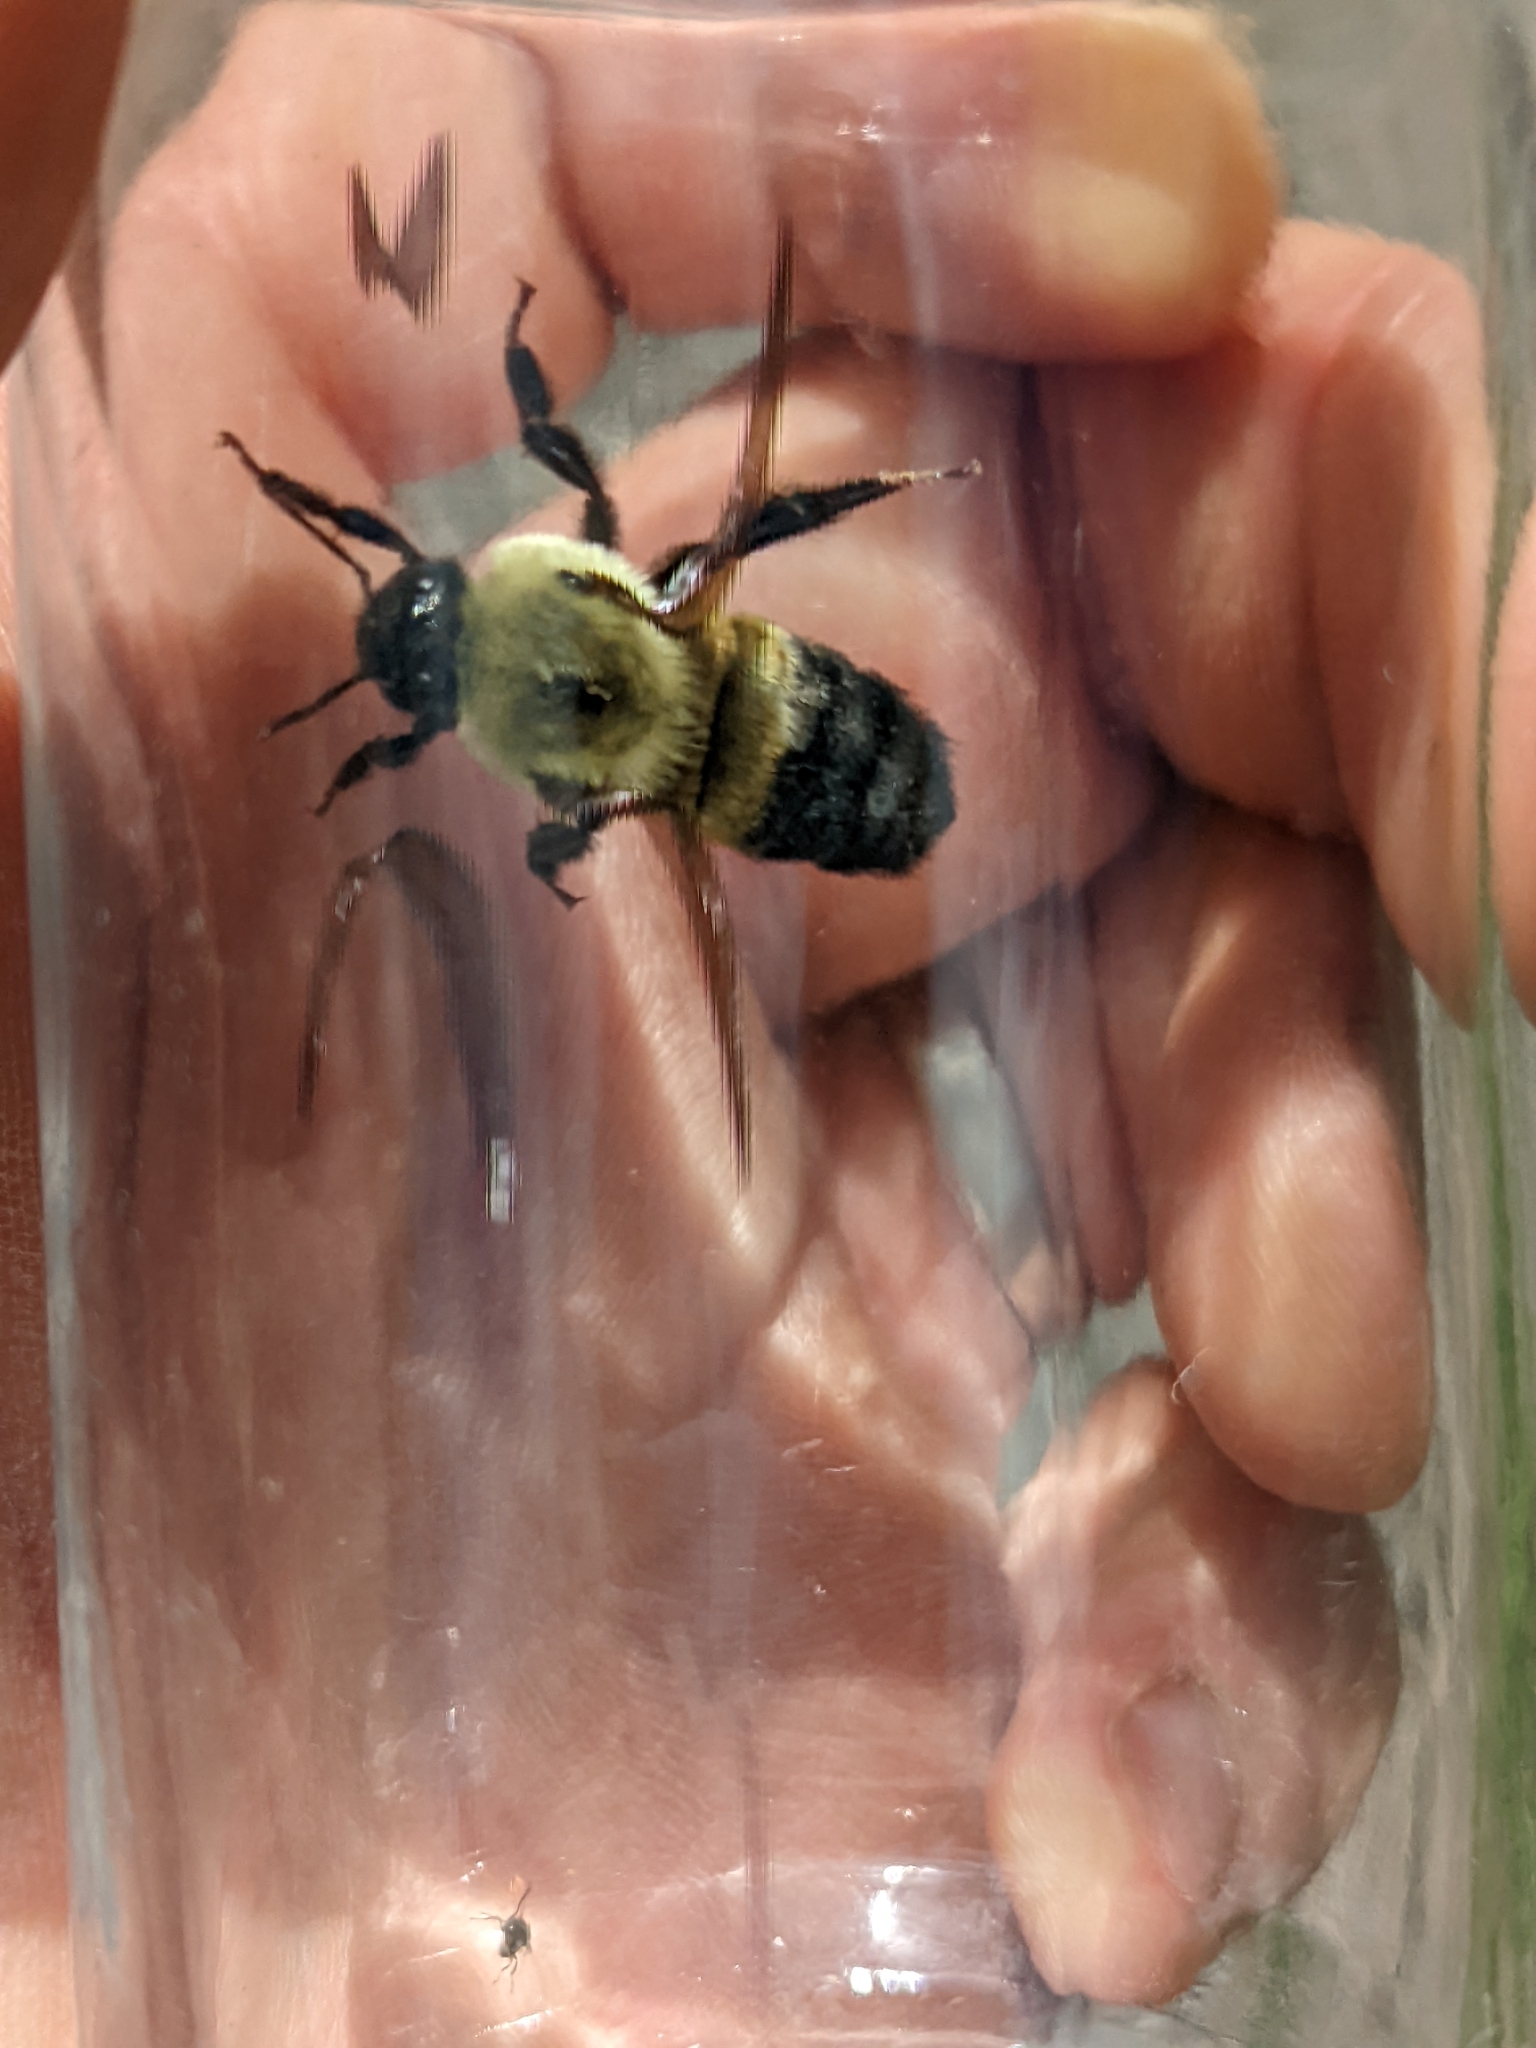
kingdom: Animalia
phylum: Arthropoda
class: Insecta
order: Hymenoptera
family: Apidae
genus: Bombus
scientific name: Bombus griseocollis
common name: Brown-belted bumble bee
